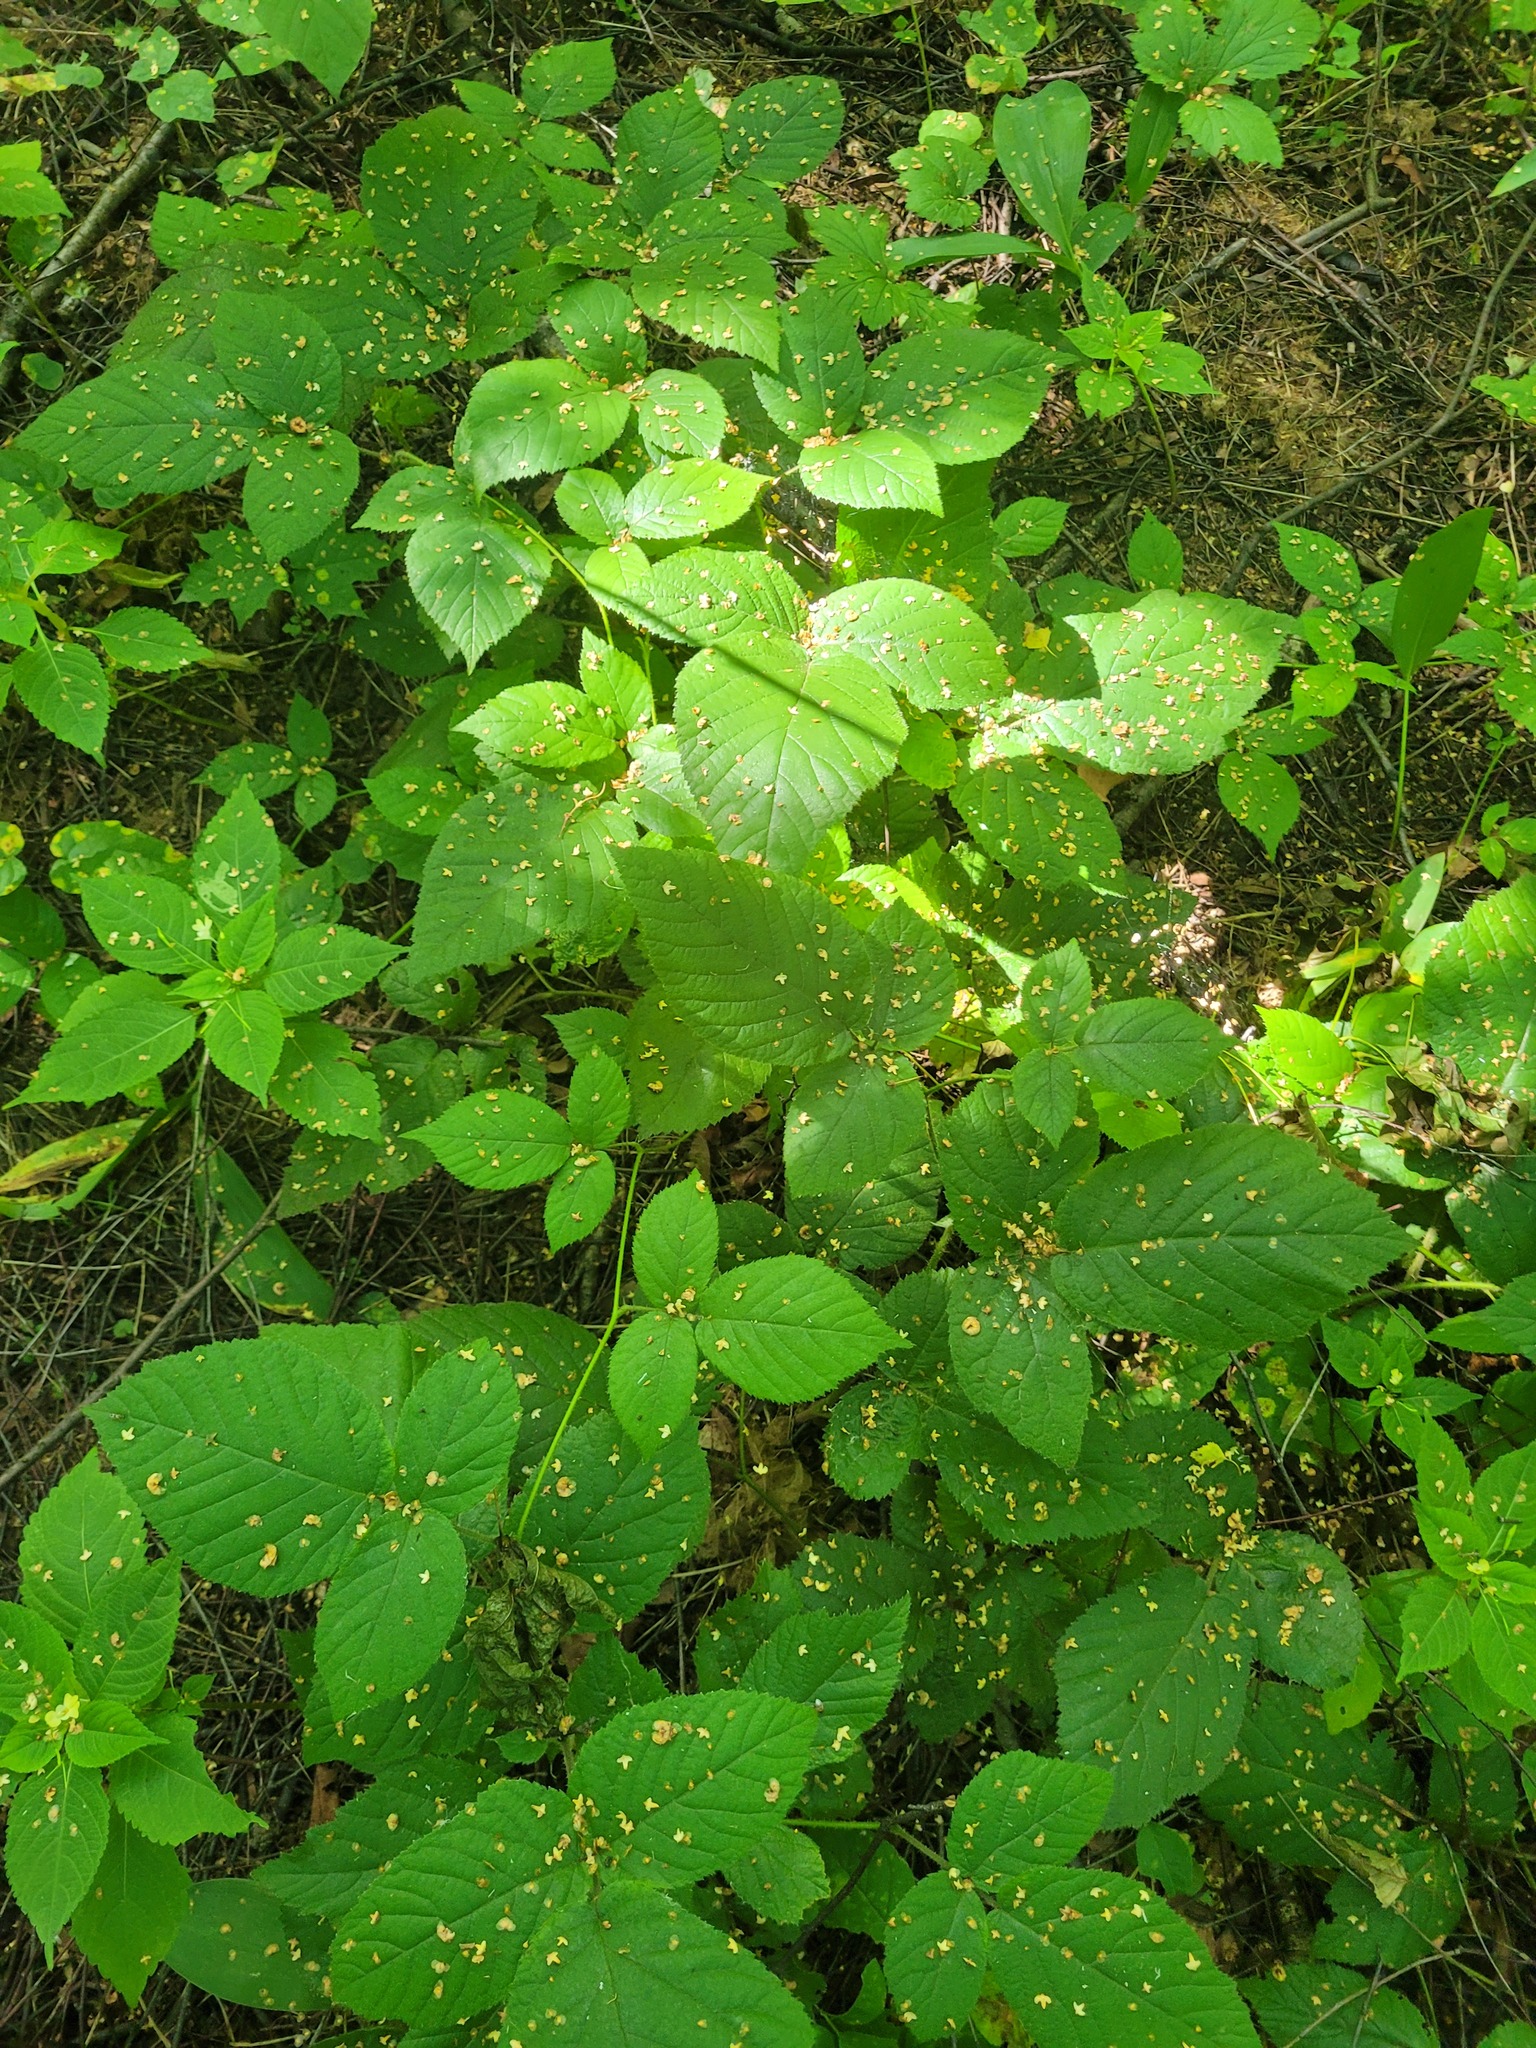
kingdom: Plantae
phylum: Tracheophyta
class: Magnoliopsida
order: Rosales
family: Rosaceae
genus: Rubus
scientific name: Rubus hirtus
